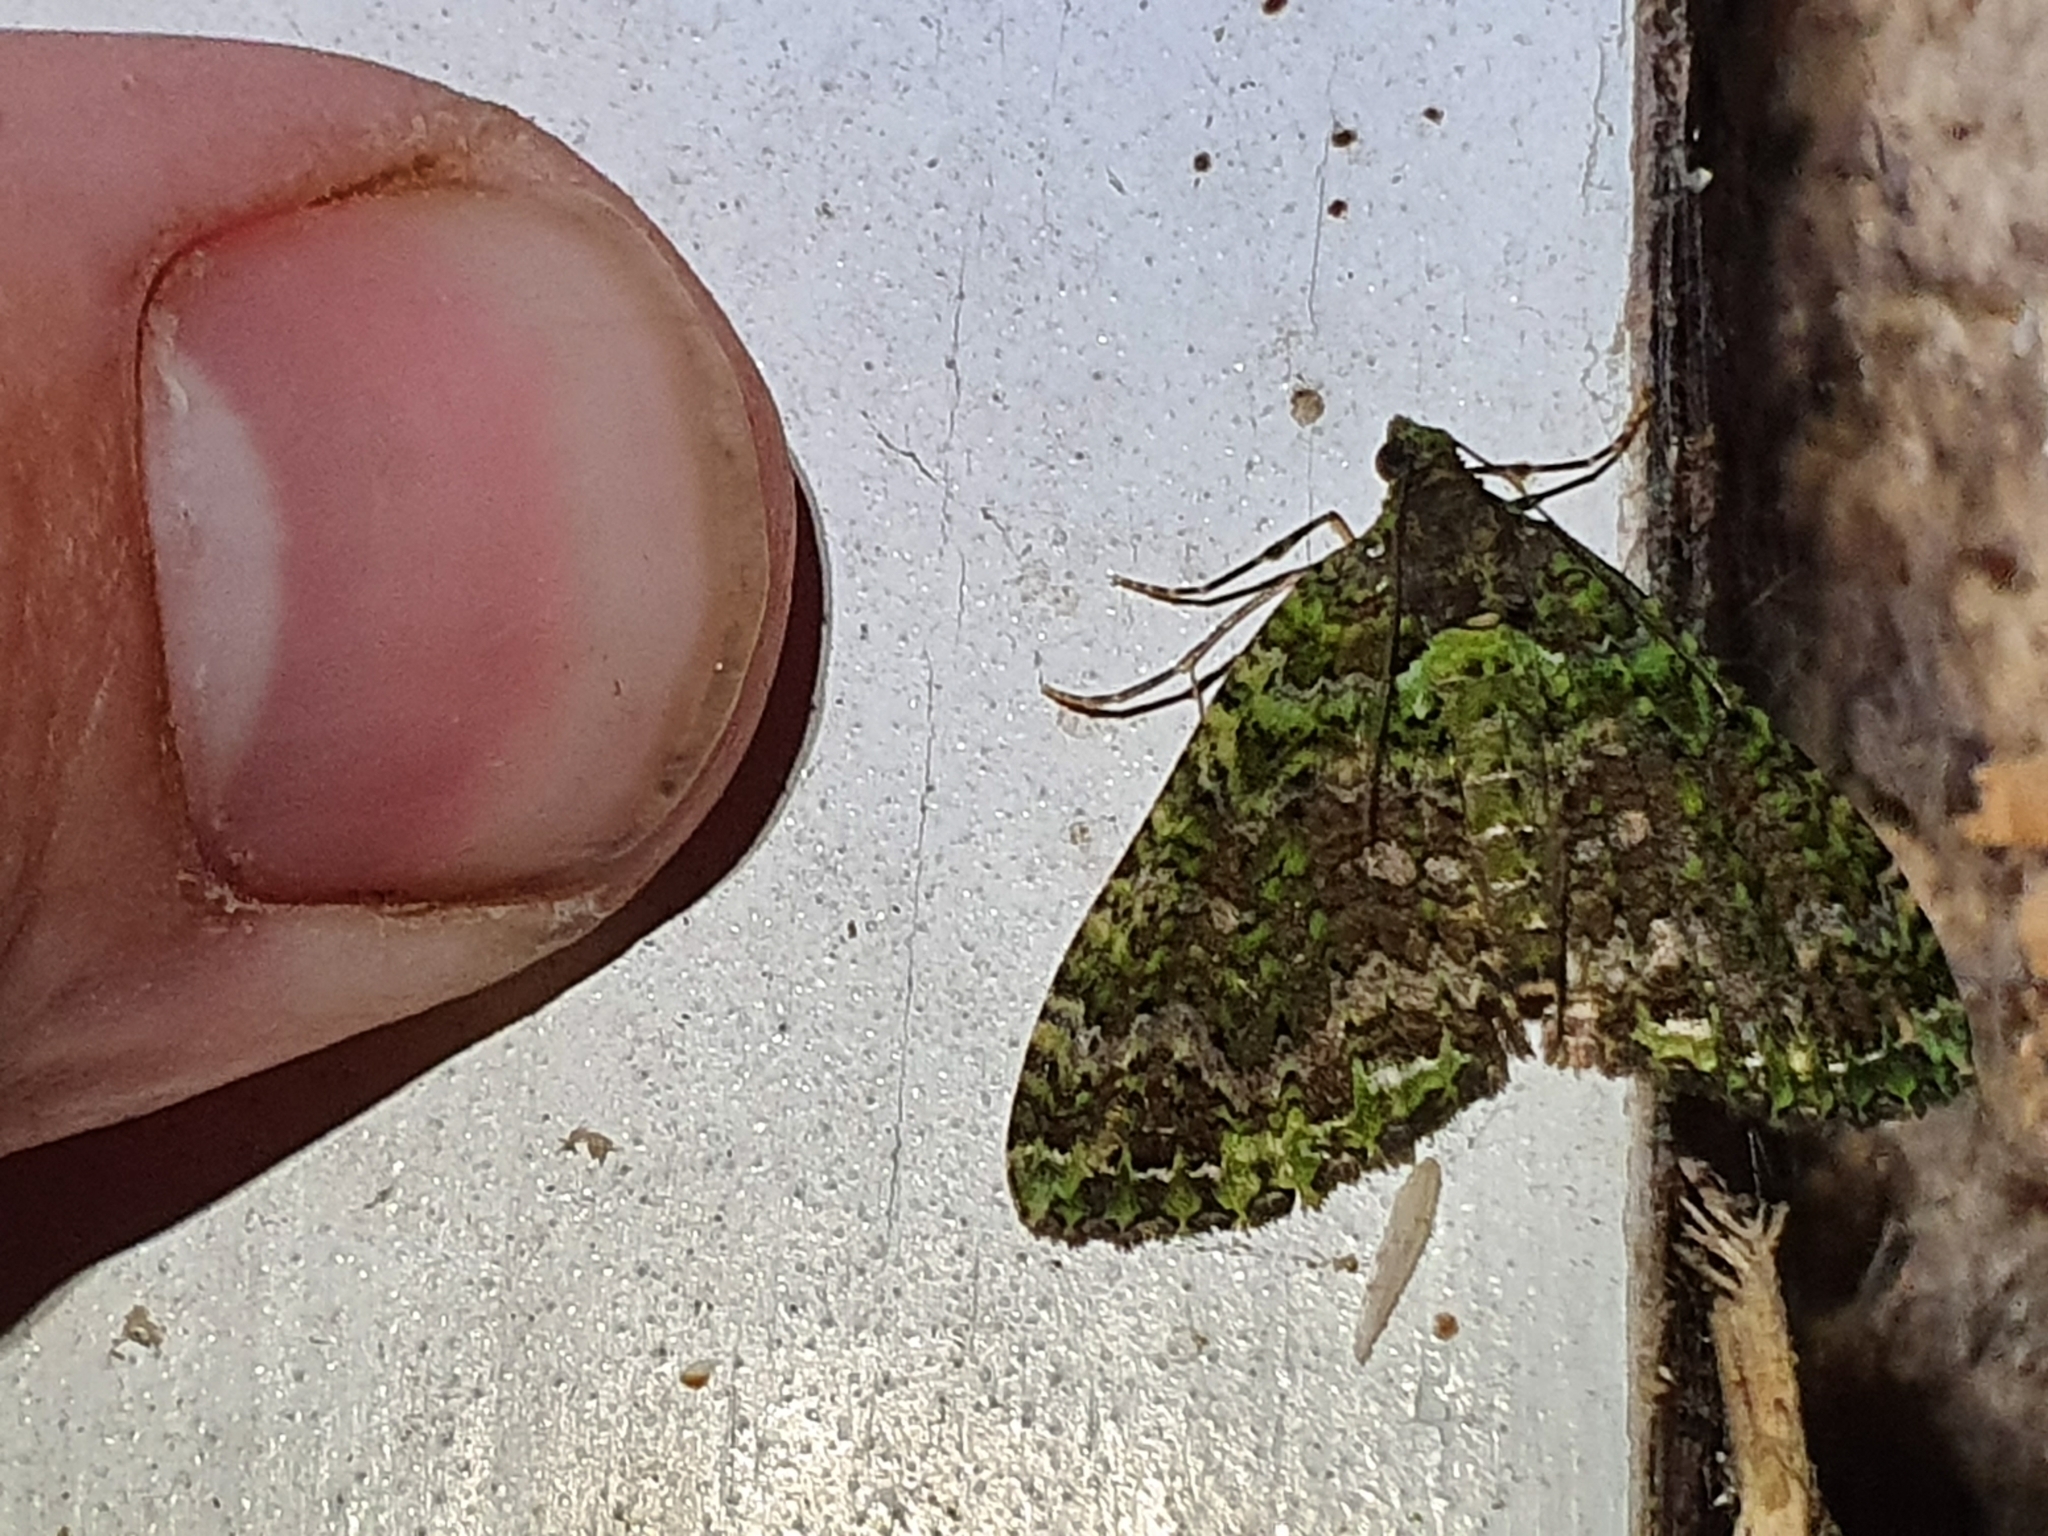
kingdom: Animalia
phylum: Arthropoda
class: Insecta
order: Lepidoptera
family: Geometridae
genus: Austrocidaria
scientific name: Austrocidaria similata
